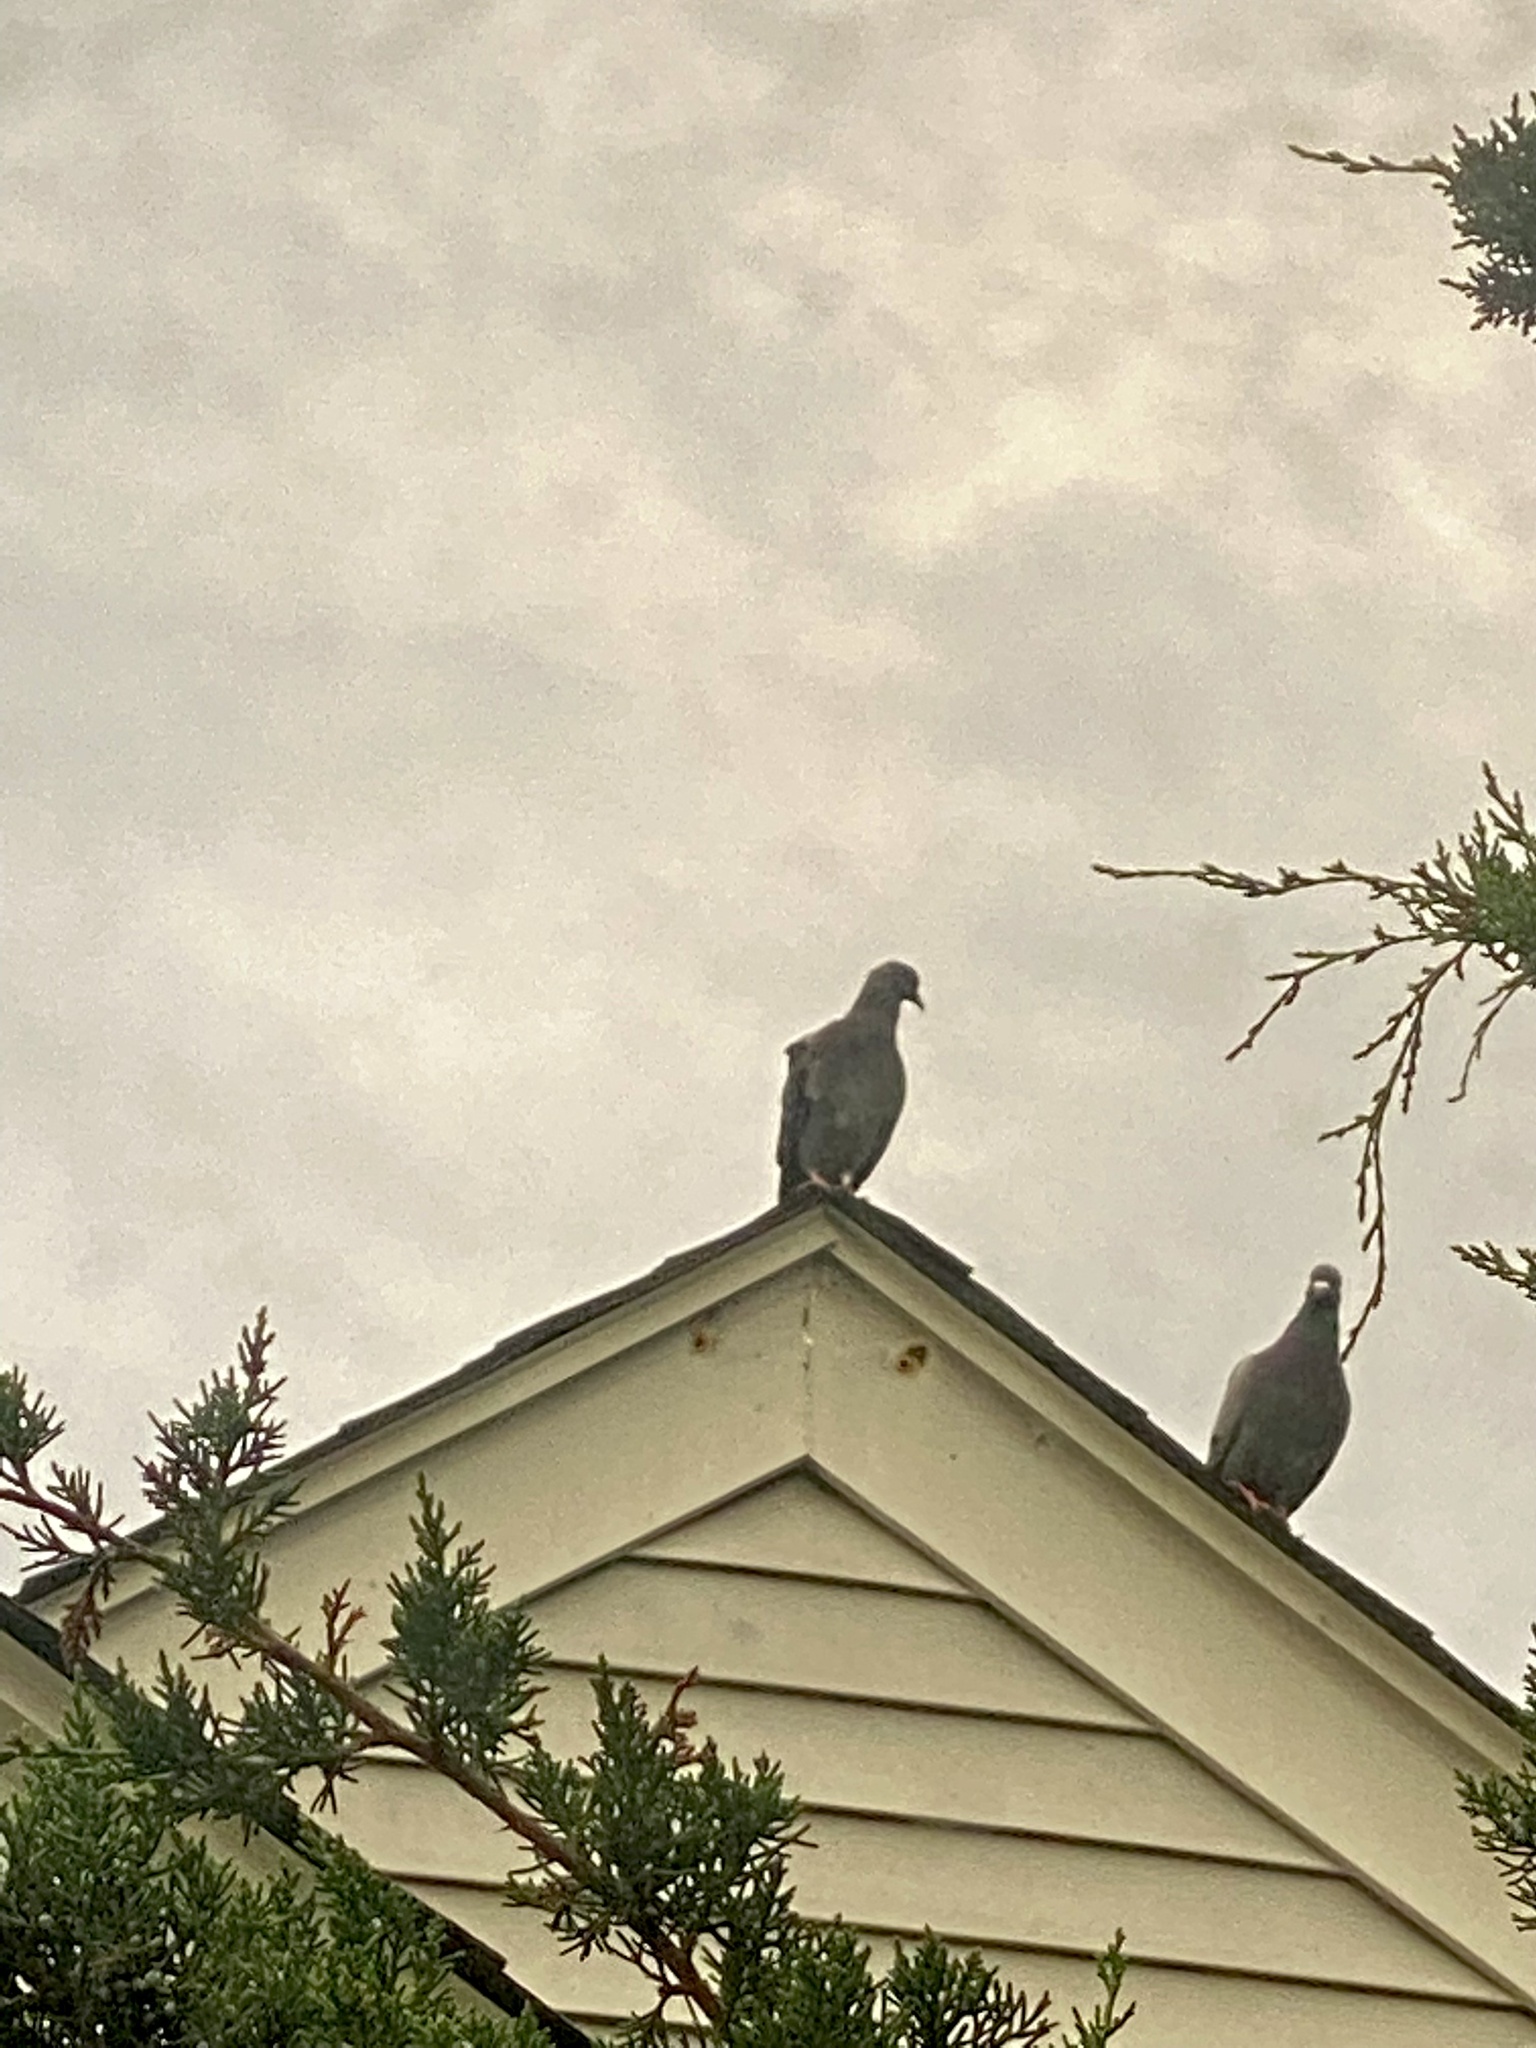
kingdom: Animalia
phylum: Chordata
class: Aves
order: Columbiformes
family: Columbidae
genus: Columba
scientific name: Columba livia
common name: Rock pigeon
